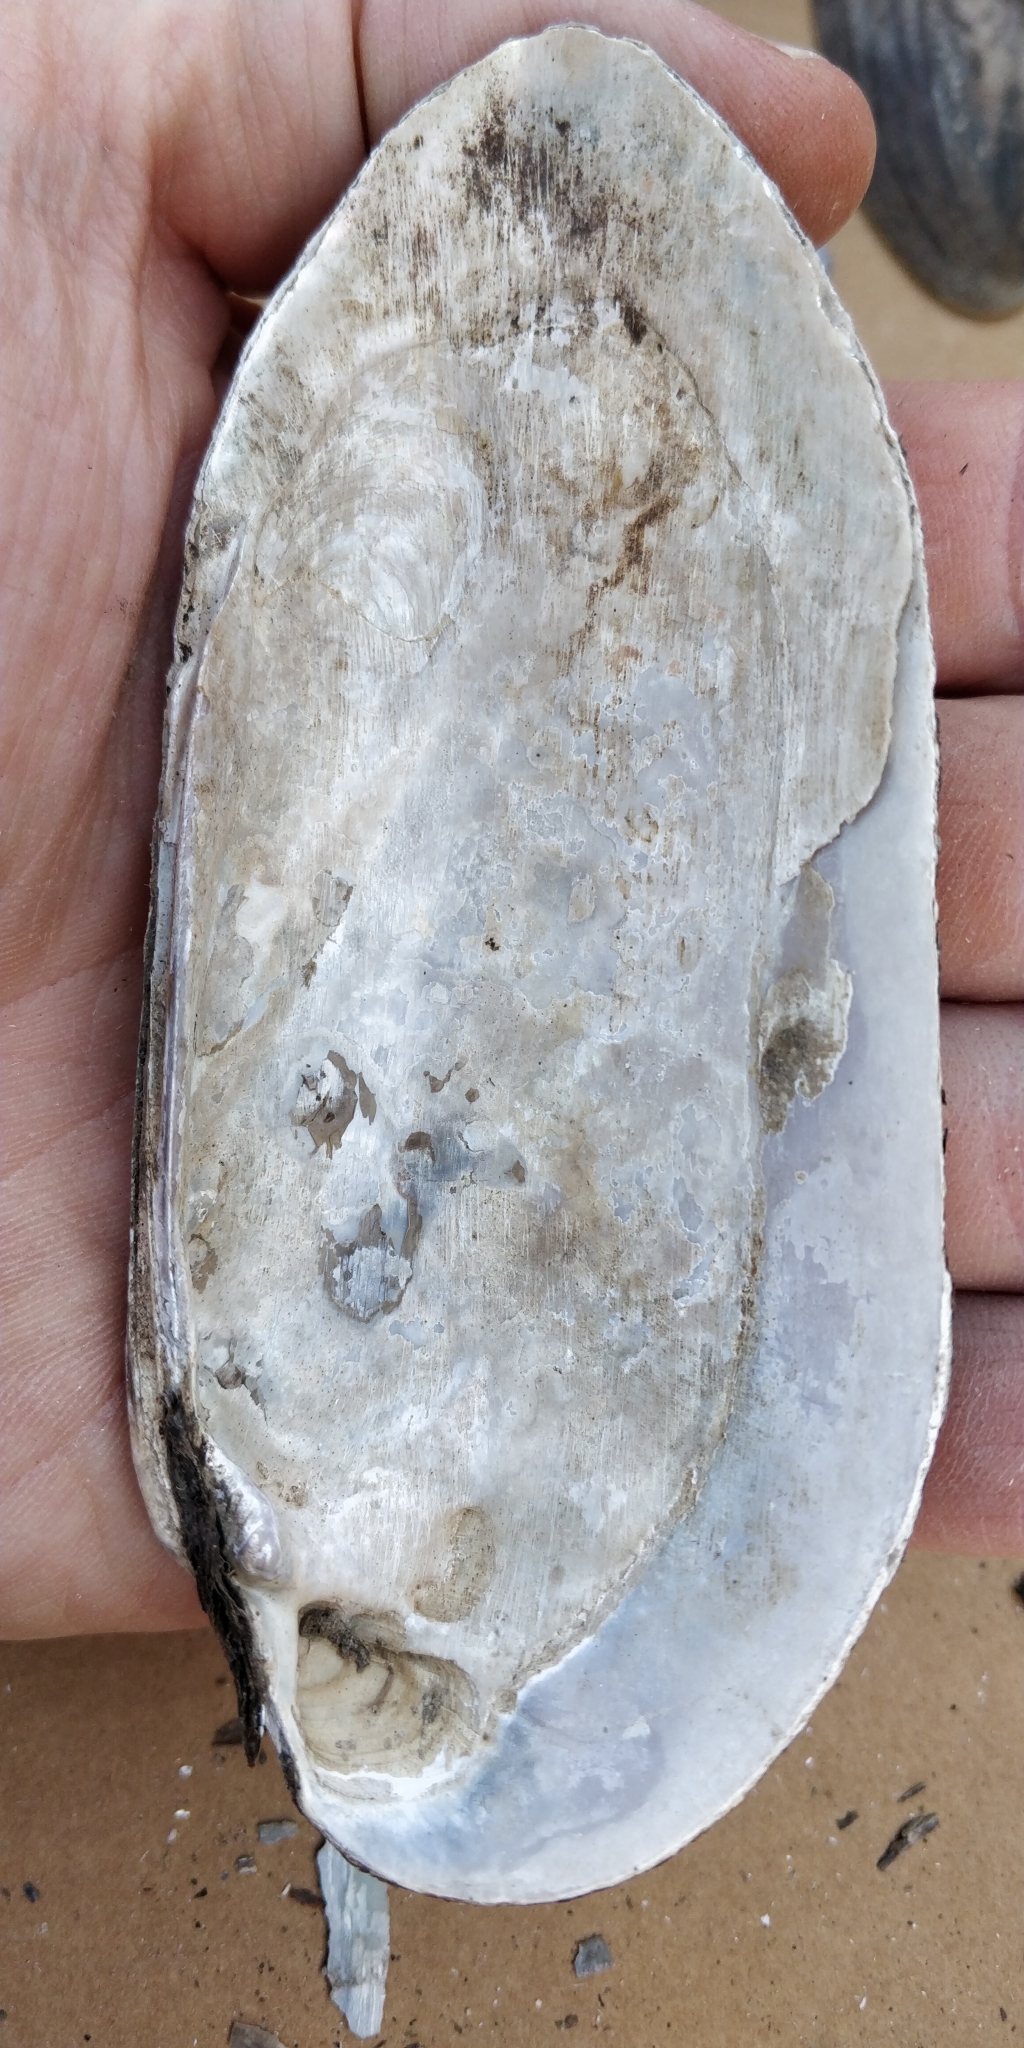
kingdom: Animalia
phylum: Mollusca
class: Bivalvia
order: Unionida
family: Unionidae
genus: Ligumia
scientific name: Ligumia recta
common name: Black sandshell
